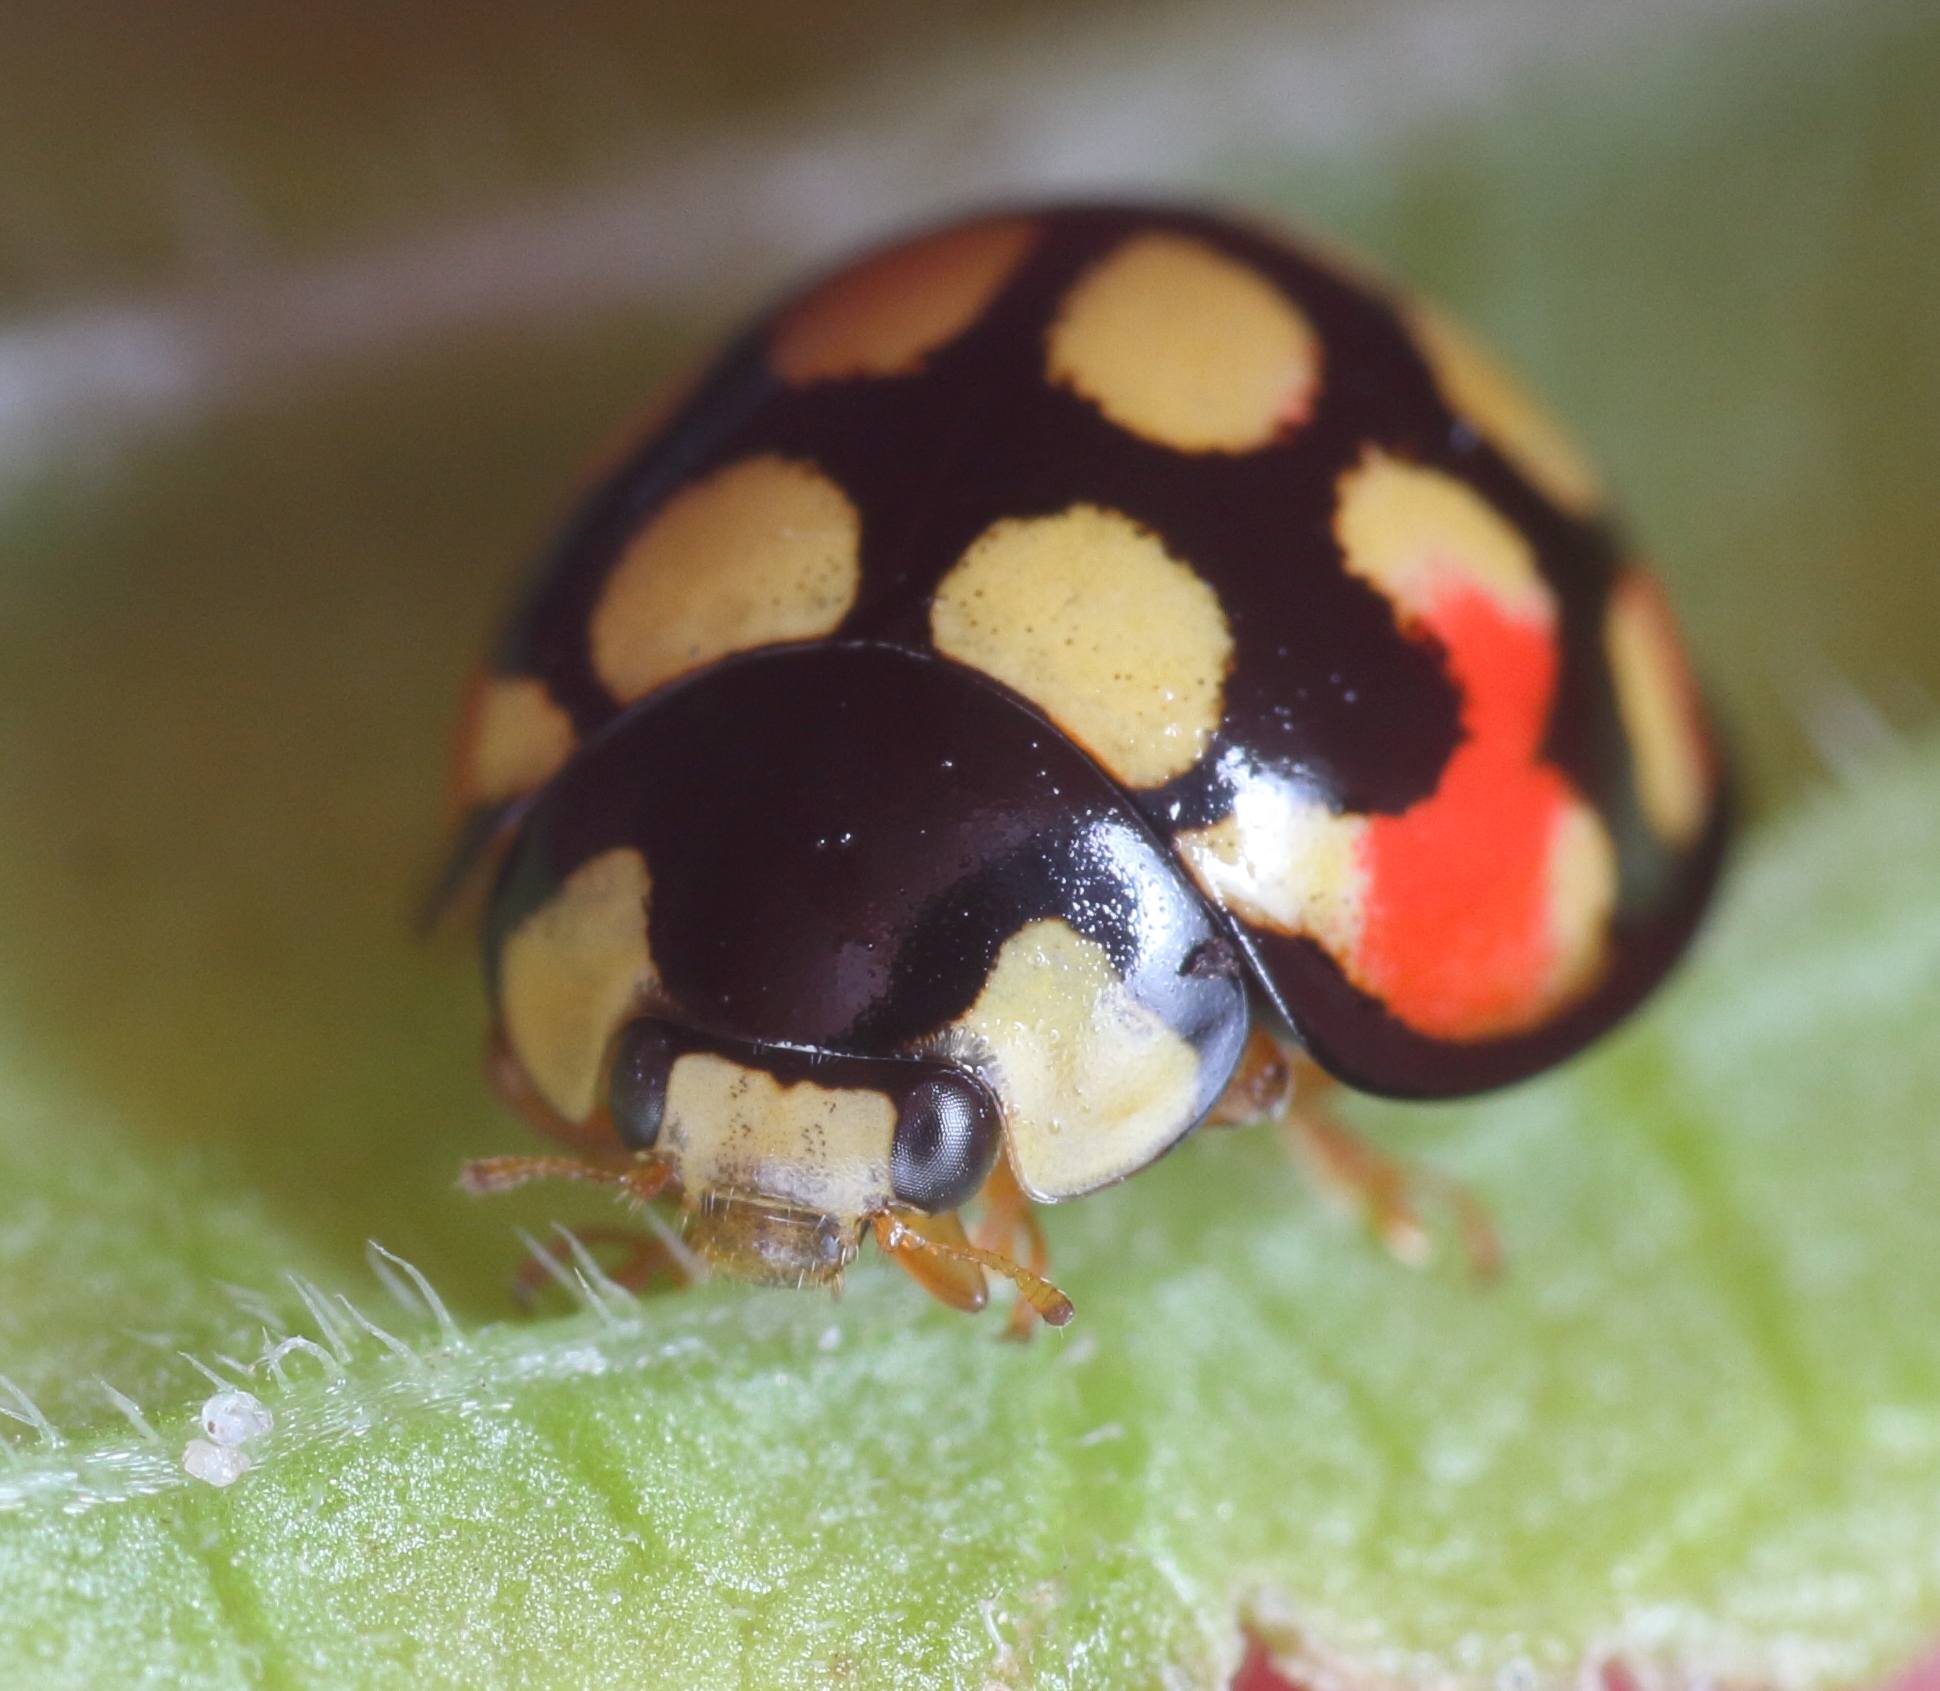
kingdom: Animalia
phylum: Arthropoda
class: Insecta
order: Coleoptera
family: Coccinellidae
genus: Cheilomenes
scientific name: Cheilomenes sulphurea
